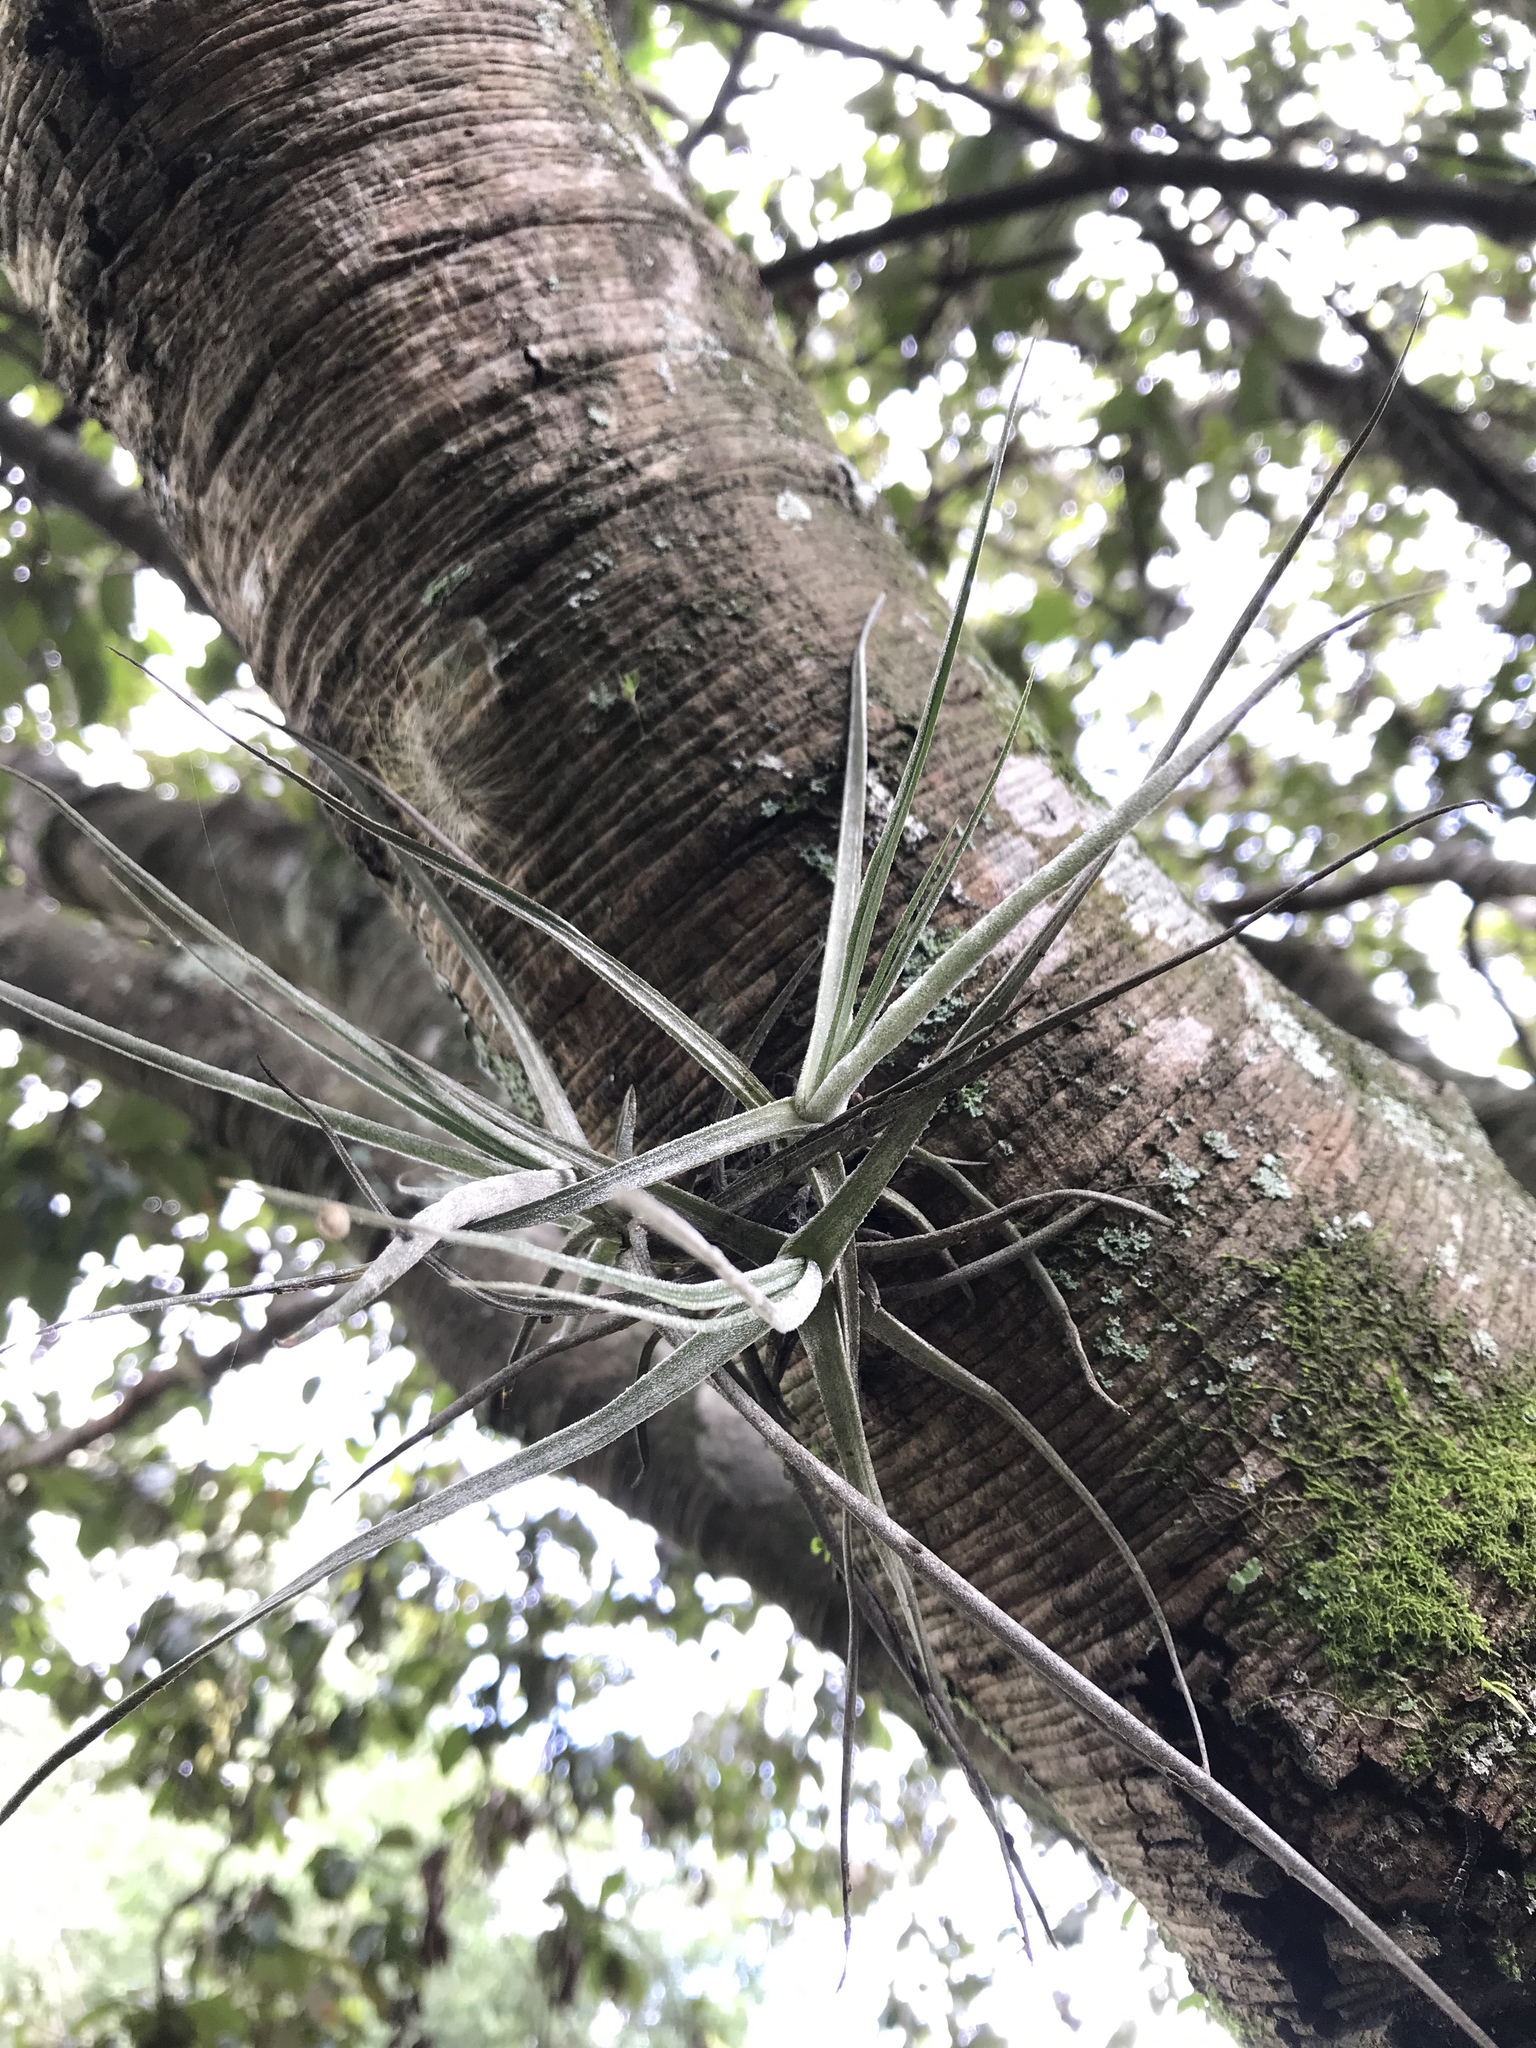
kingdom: Plantae
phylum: Tracheophyta
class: Liliopsida
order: Poales
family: Bromeliaceae
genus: Tillandsia
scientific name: Tillandsia schiedeana
